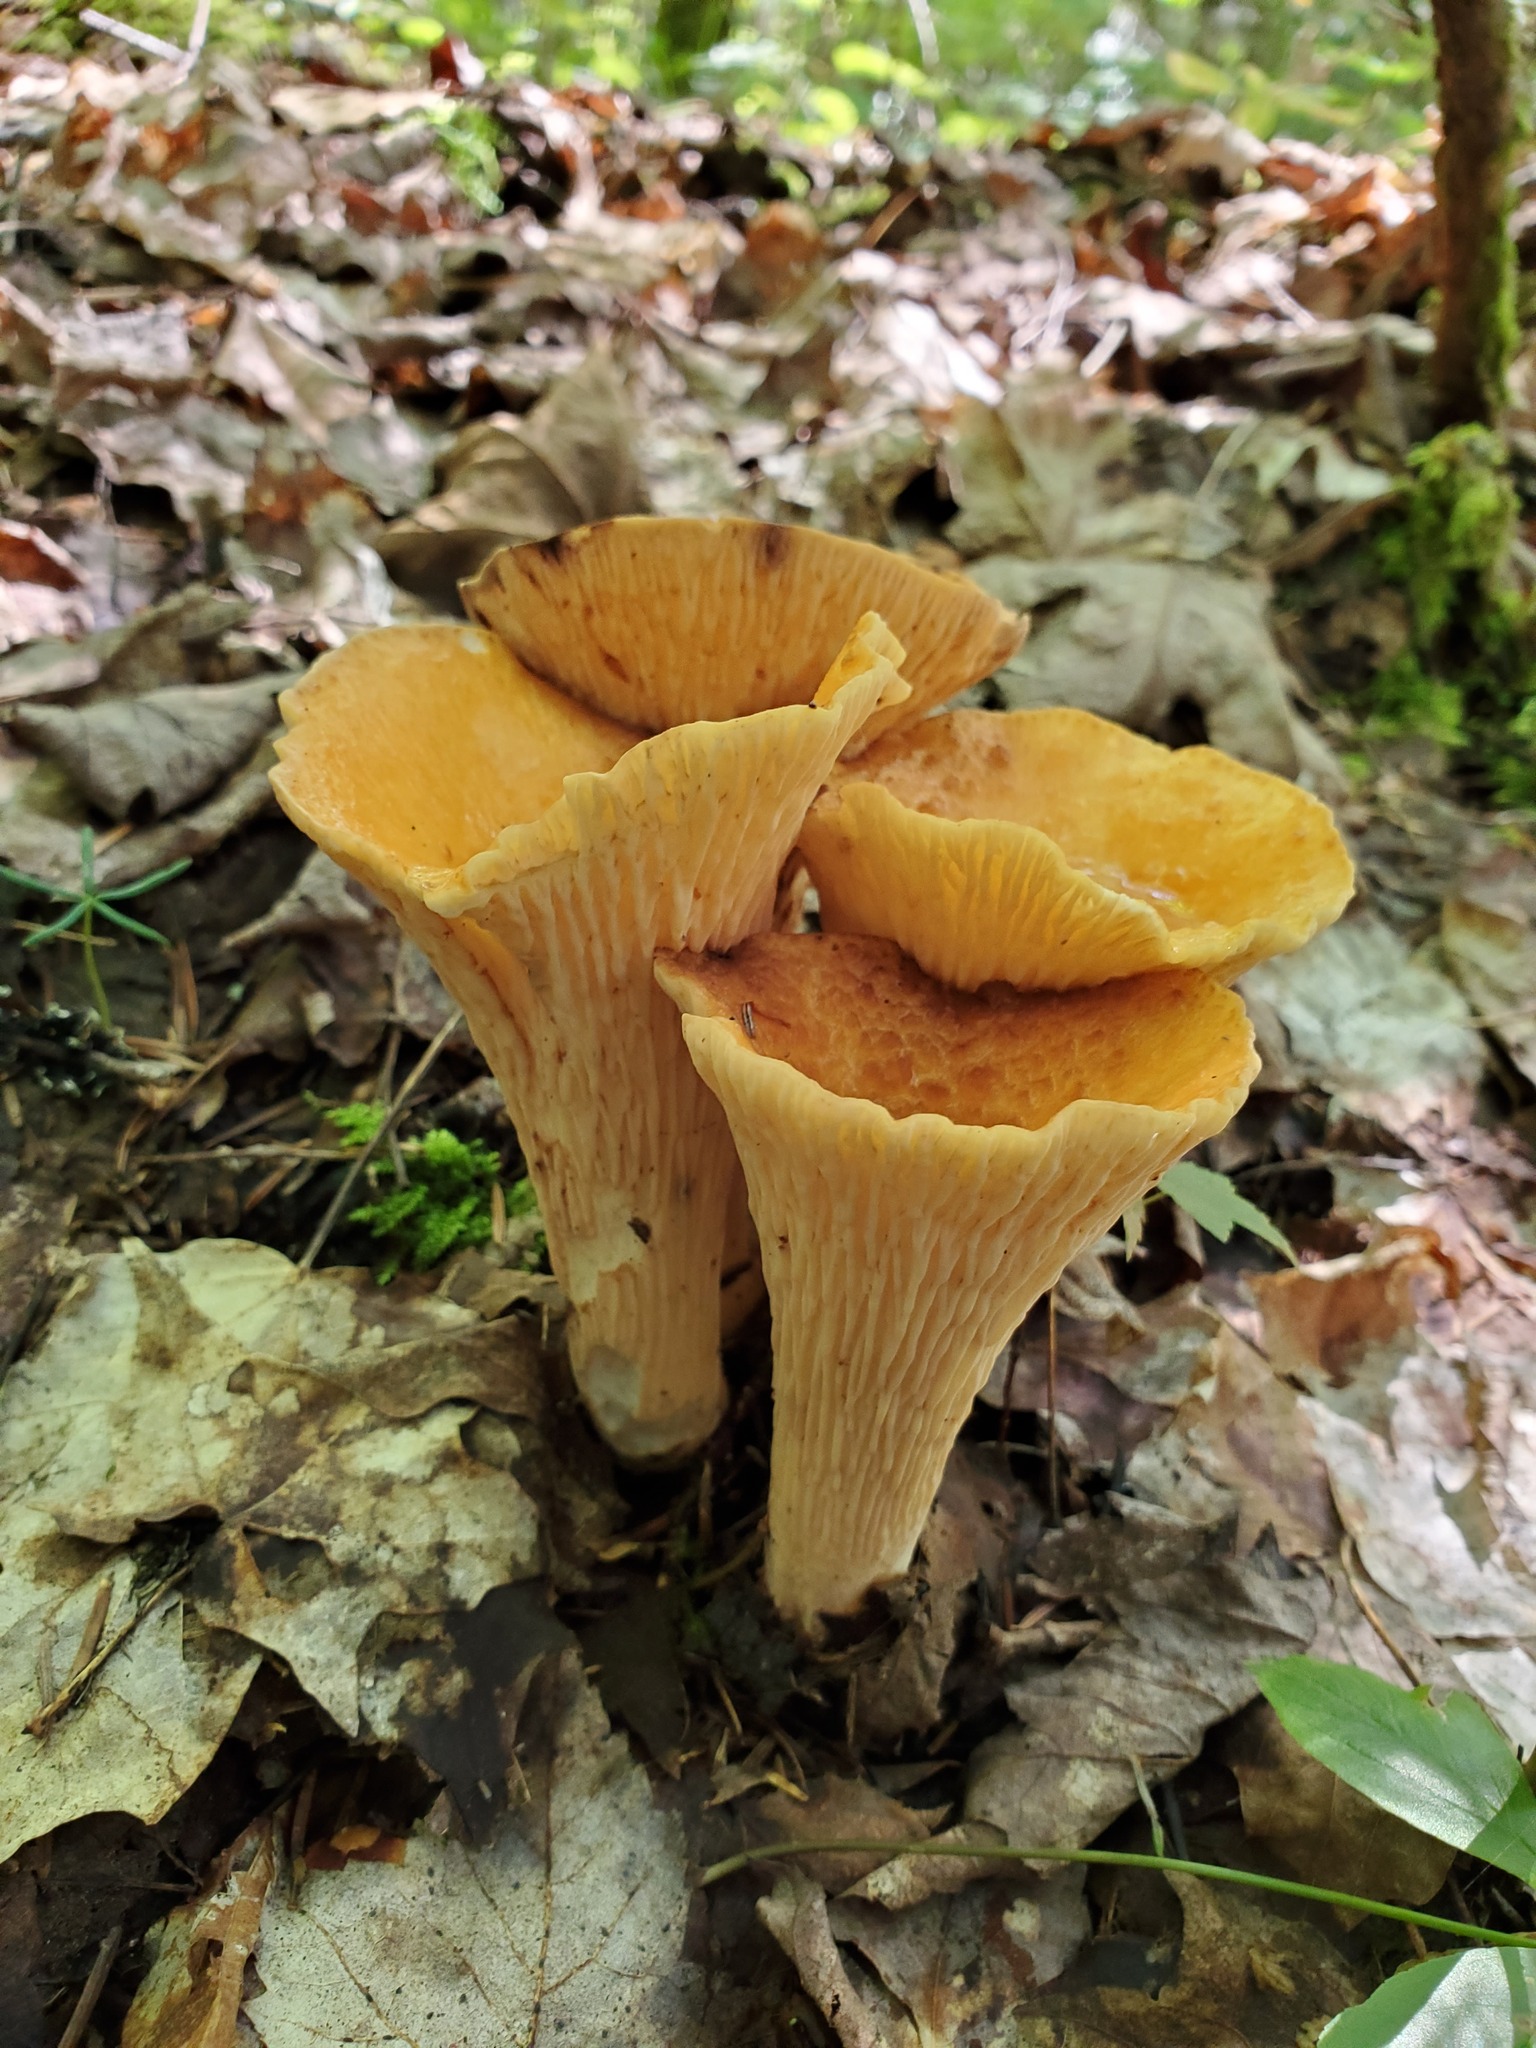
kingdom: Fungi
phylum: Basidiomycota
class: Agaricomycetes
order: Gomphales
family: Gomphaceae
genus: Turbinellus
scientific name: Turbinellus floccosus
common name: Scaly chanterelle
